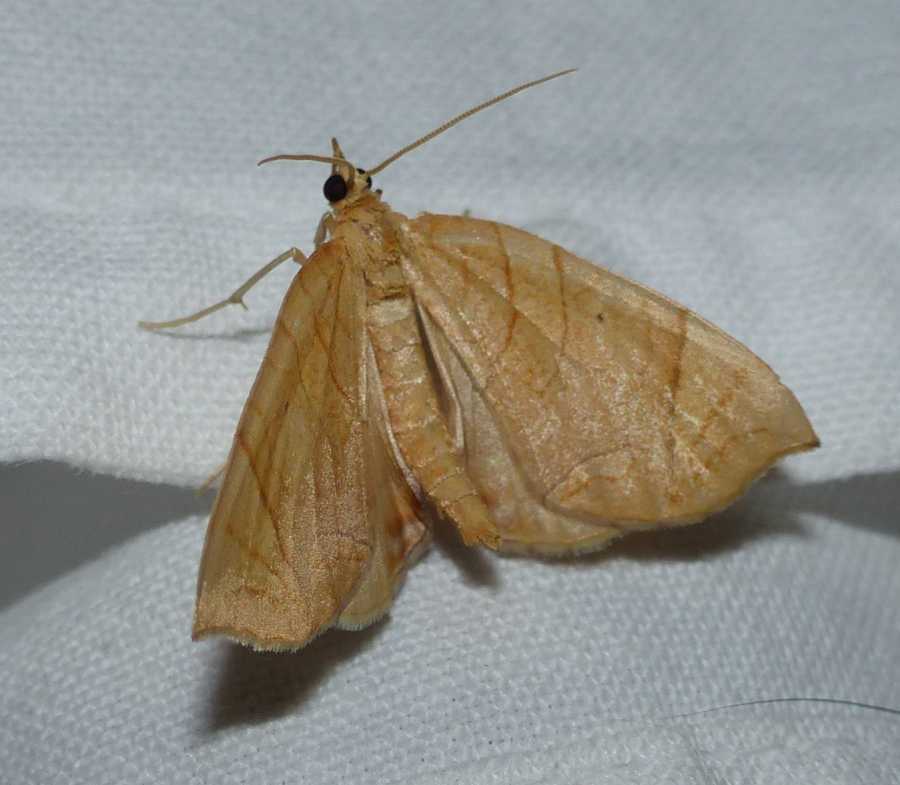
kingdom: Animalia
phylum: Arthropoda
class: Insecta
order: Lepidoptera
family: Geometridae
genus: Eulithis
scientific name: Eulithis
